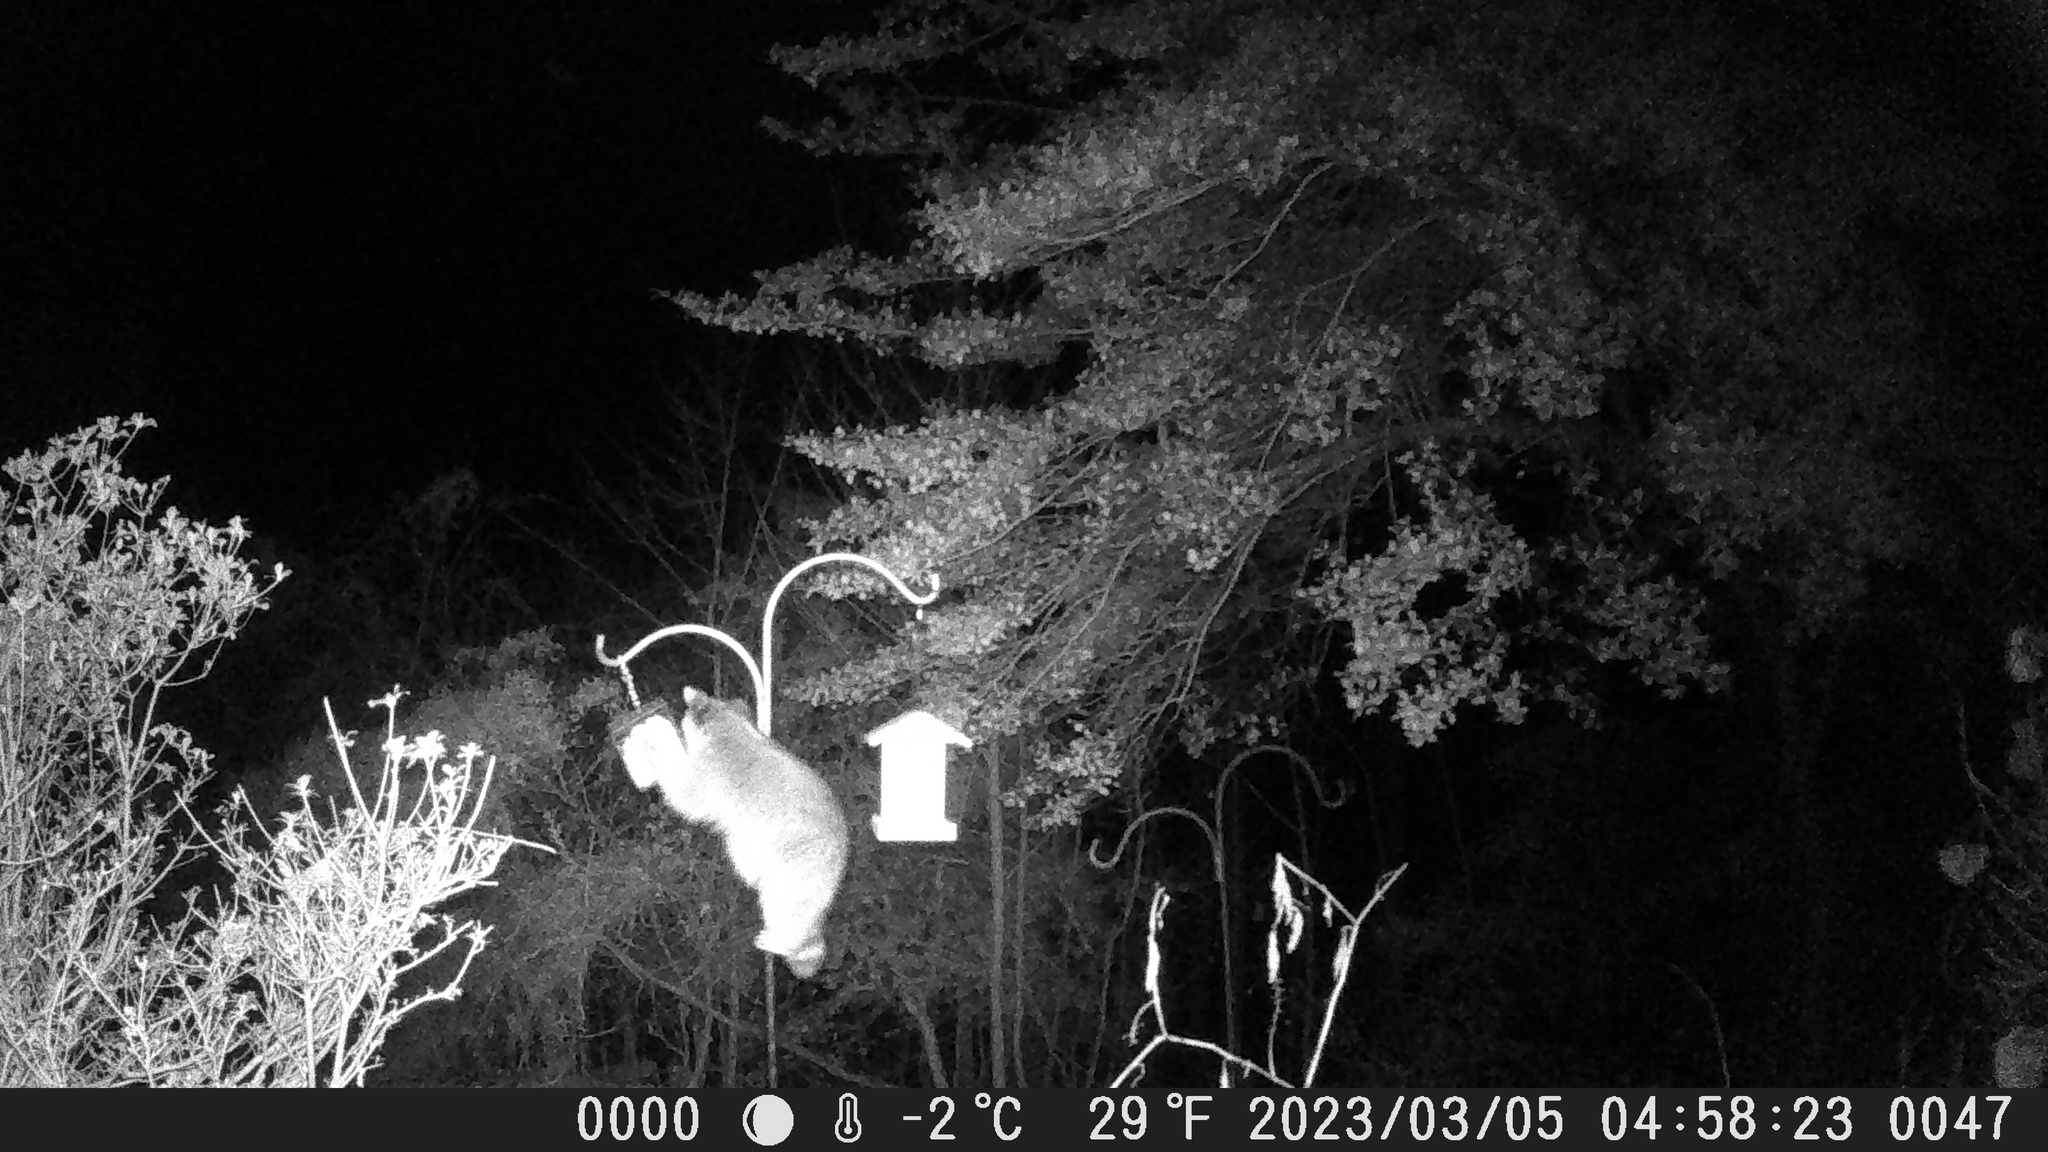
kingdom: Animalia
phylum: Chordata
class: Mammalia
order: Carnivora
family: Procyonidae
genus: Procyon
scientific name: Procyon lotor
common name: Raccoon
